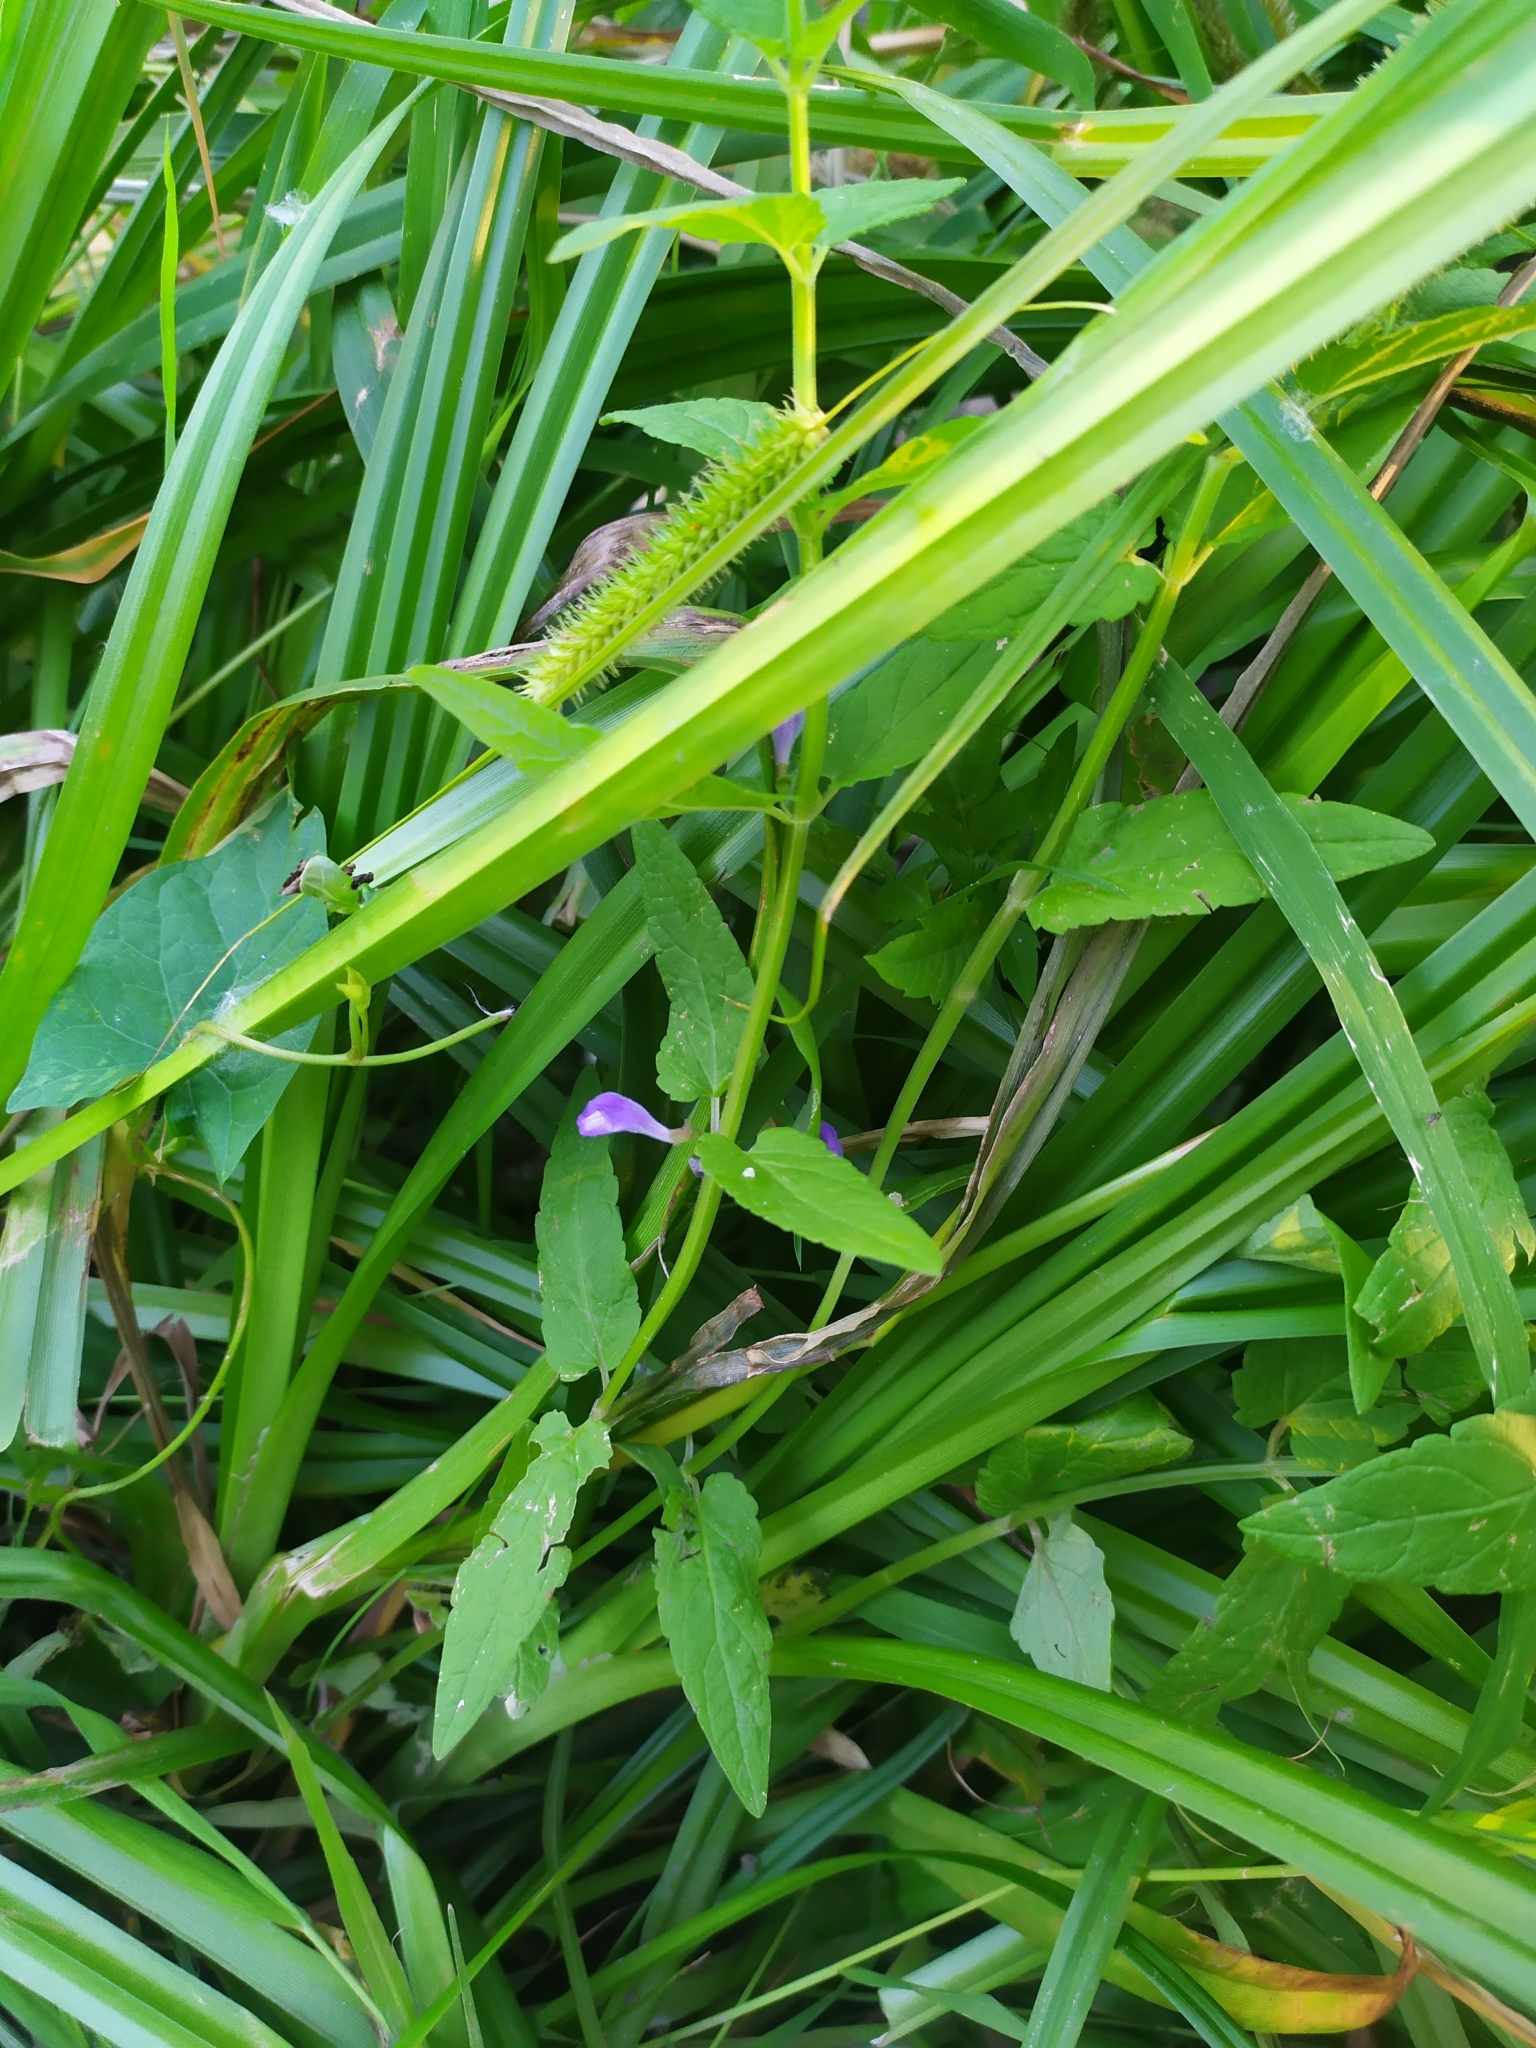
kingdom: Plantae
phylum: Tracheophyta
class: Magnoliopsida
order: Lamiales
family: Lamiaceae
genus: Scutellaria
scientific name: Scutellaria galericulata
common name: Skullcap
